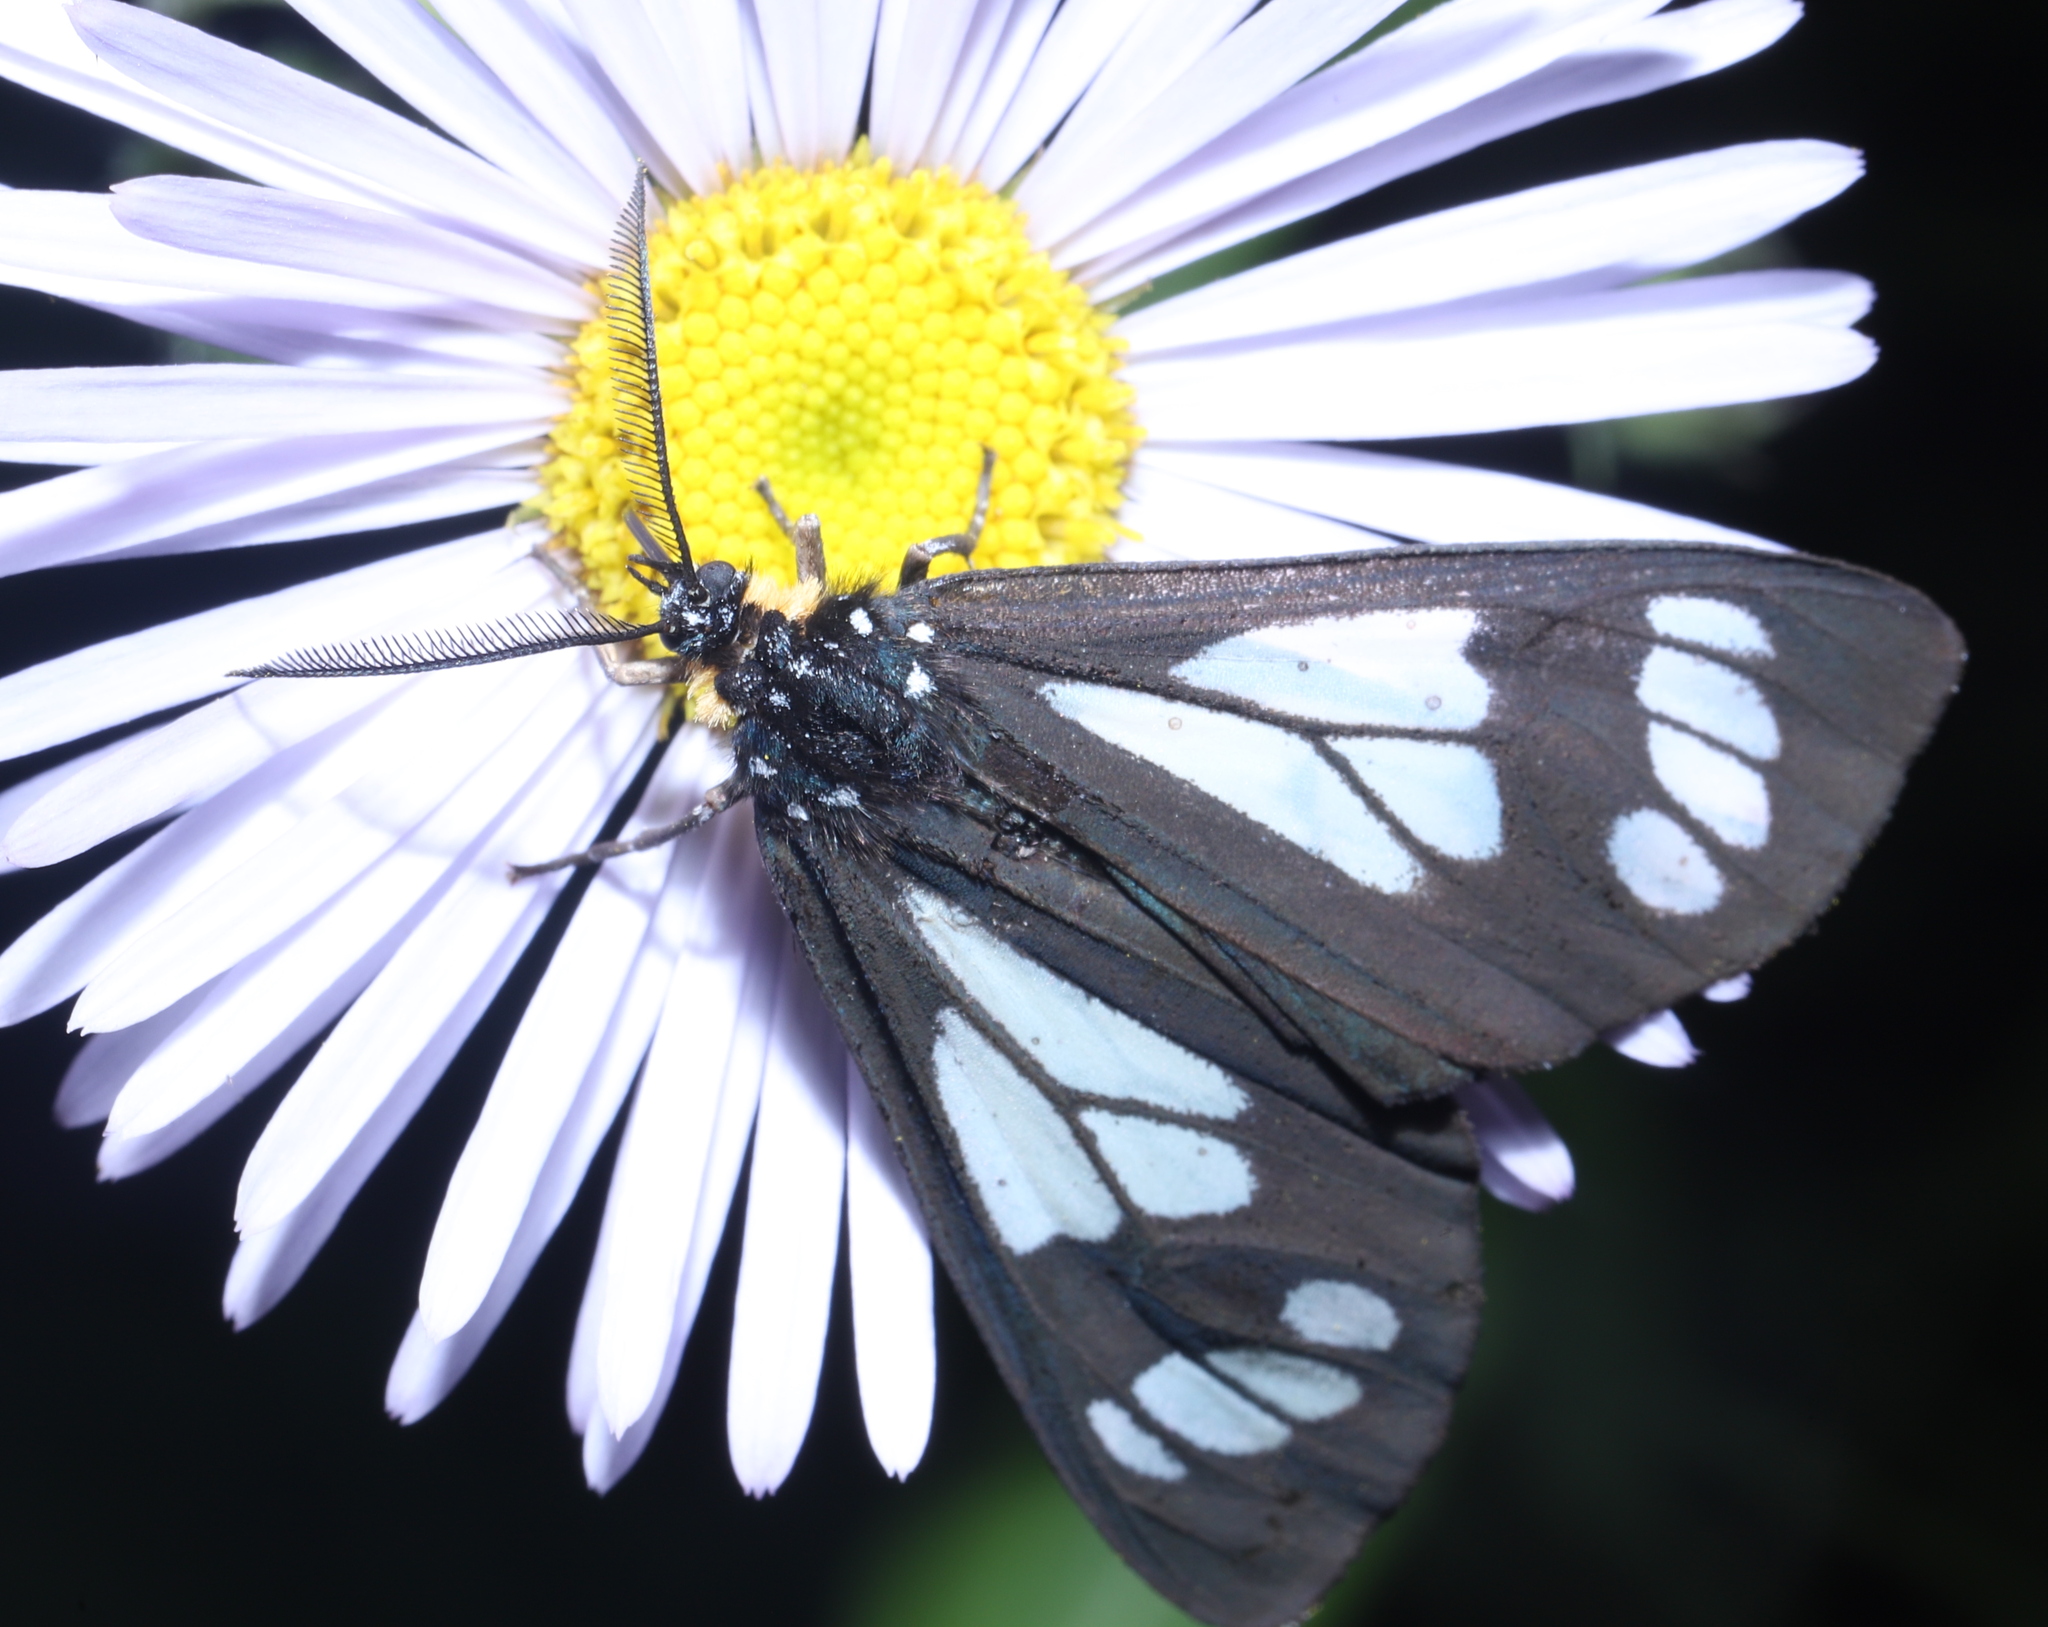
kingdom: Animalia
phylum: Arthropoda
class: Insecta
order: Lepidoptera
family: Erebidae
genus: Gnophaela
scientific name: Gnophaela vermiculata
